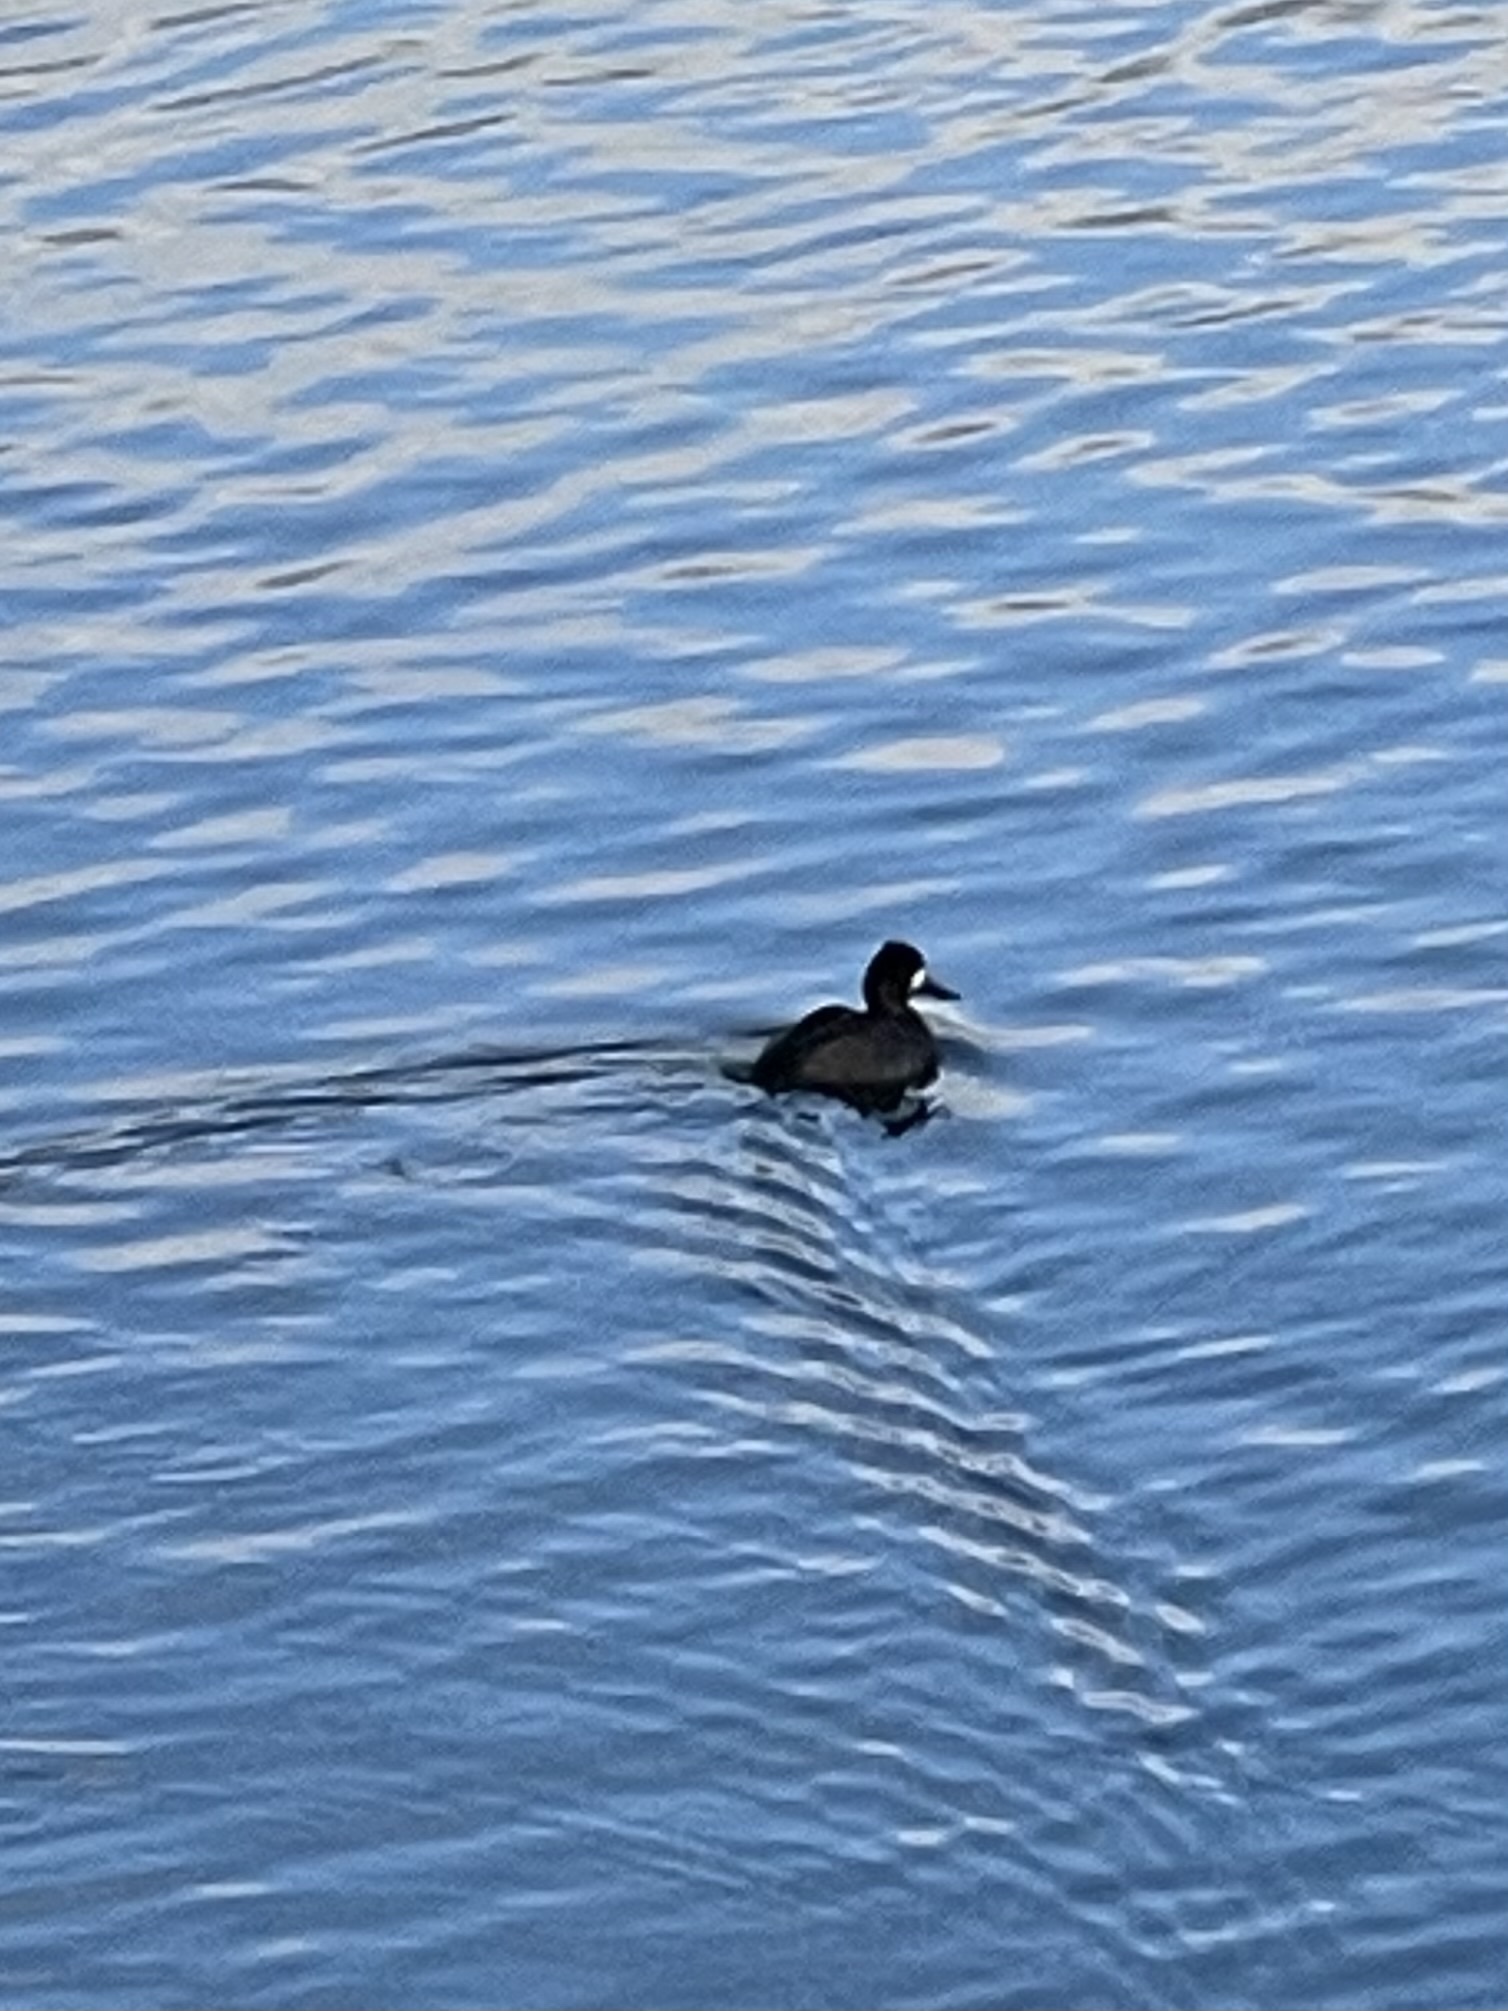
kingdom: Animalia
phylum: Chordata
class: Aves
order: Anseriformes
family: Anatidae
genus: Aythya
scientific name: Aythya affinis
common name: Lesser scaup
